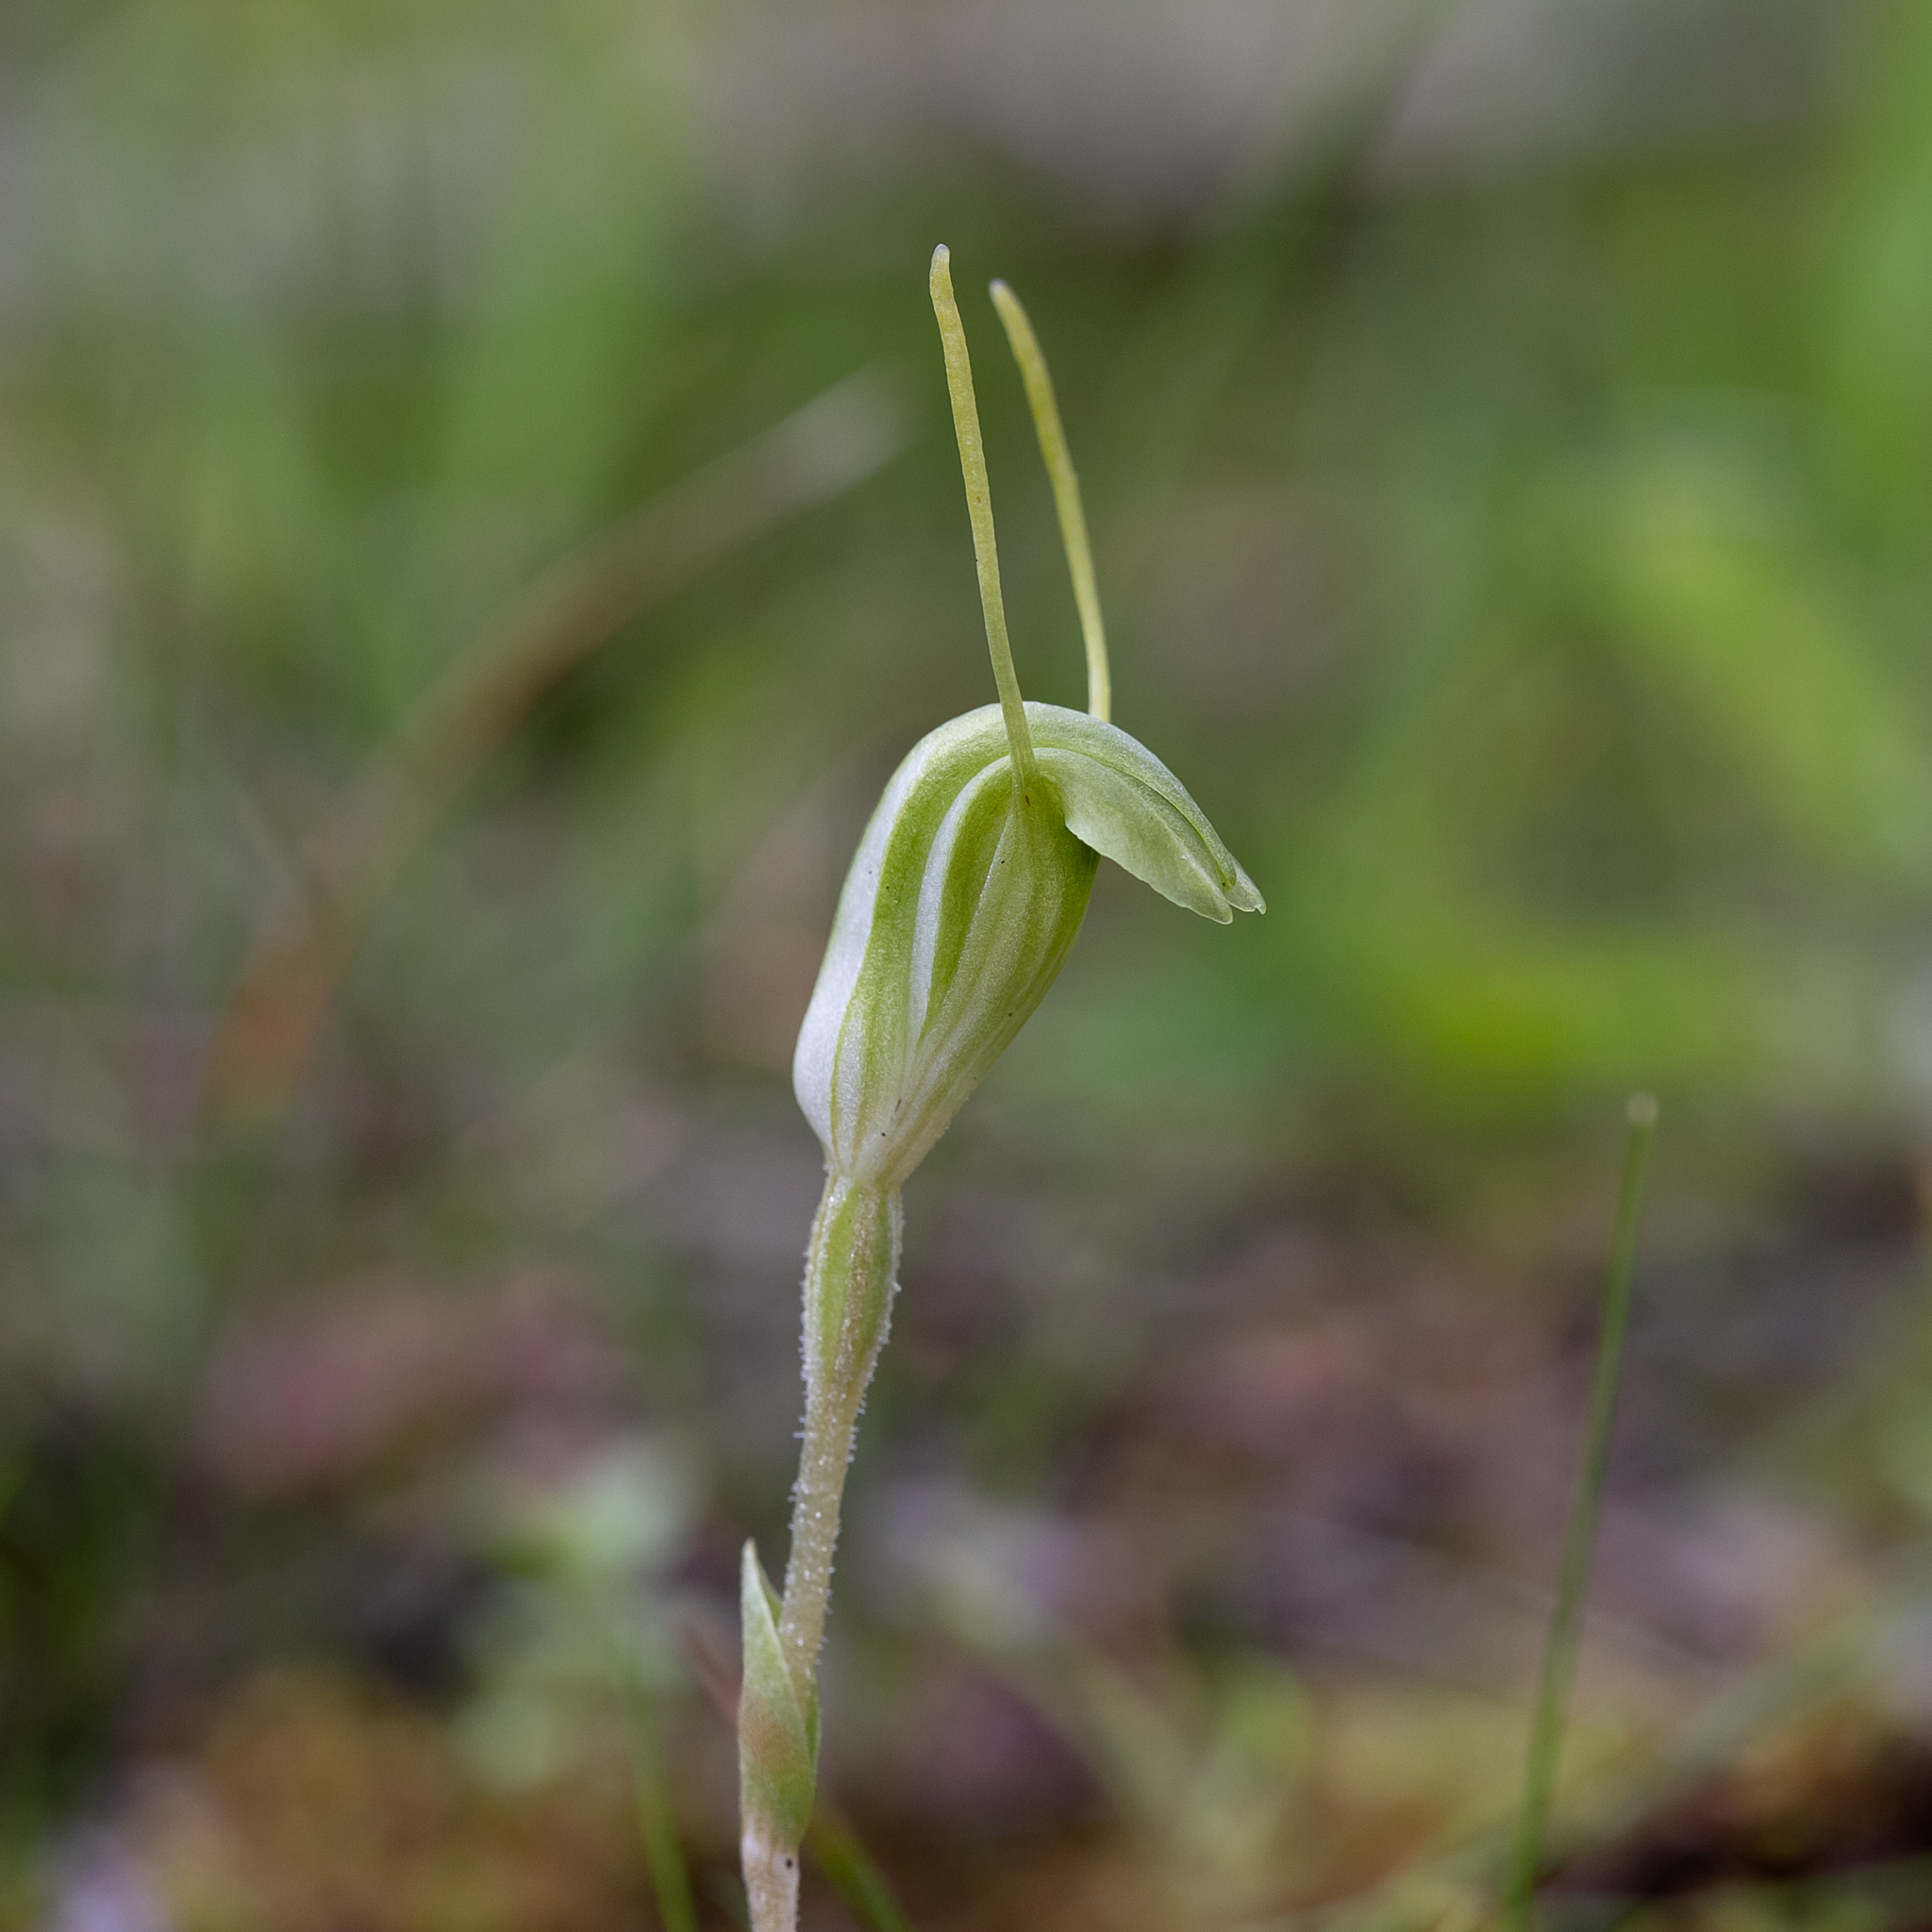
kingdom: Plantae
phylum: Tracheophyta
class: Liliopsida
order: Asparagales
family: Orchidaceae
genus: Pterostylis
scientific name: Pterostylis nana
